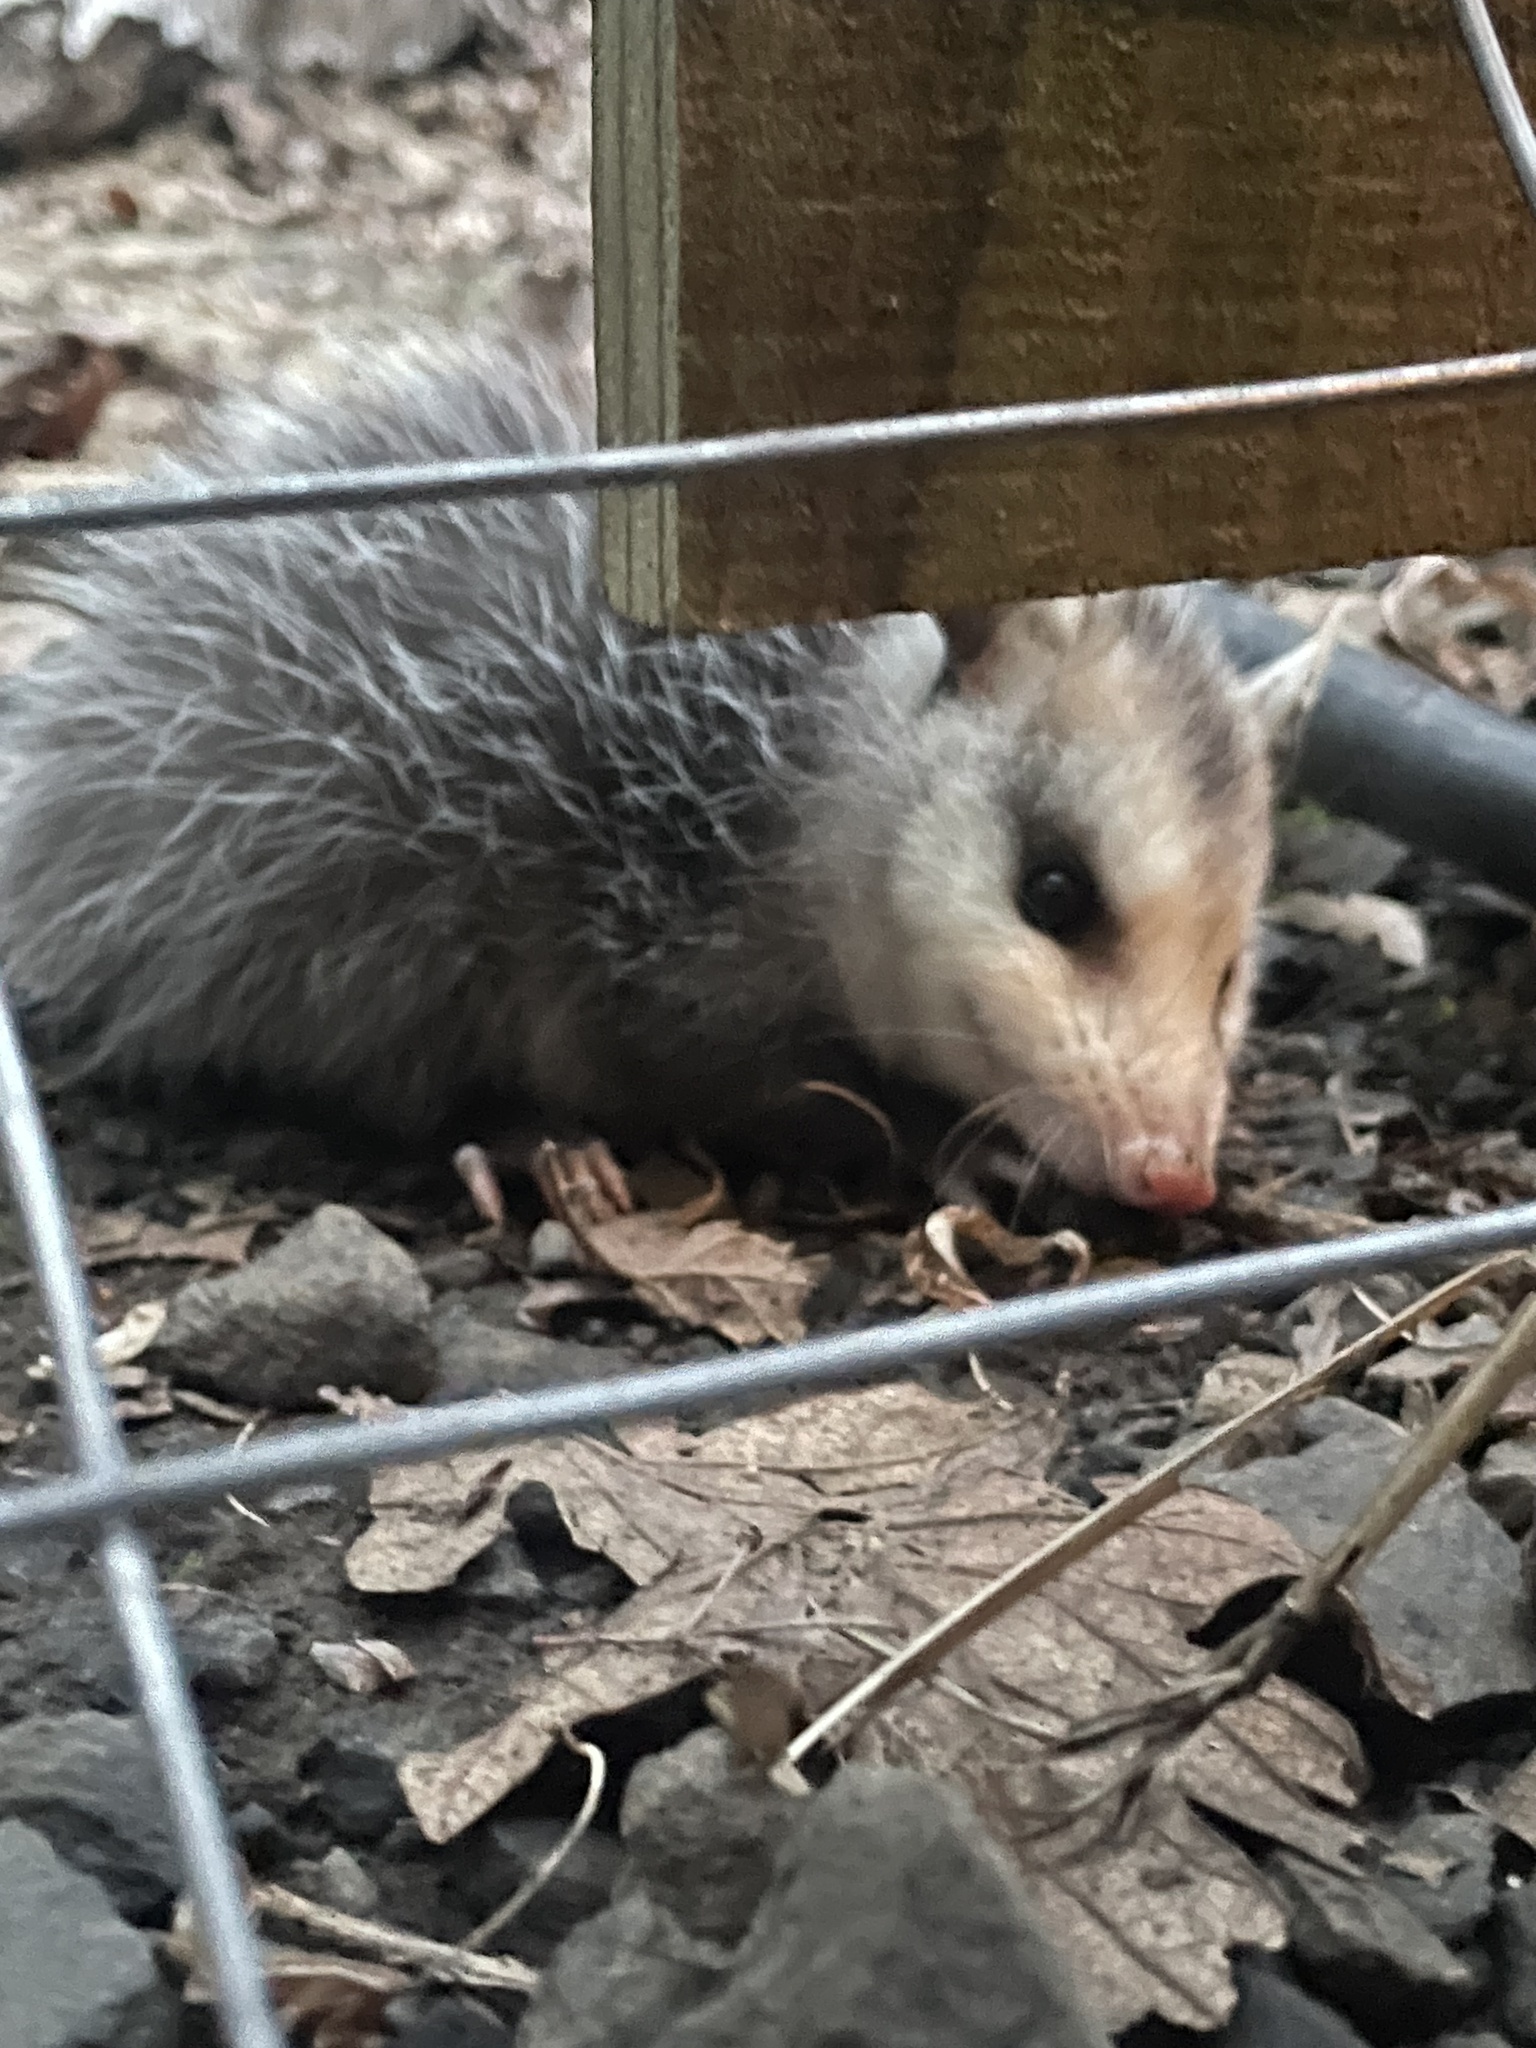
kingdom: Animalia
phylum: Chordata
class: Mammalia
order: Didelphimorphia
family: Didelphidae
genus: Didelphis
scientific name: Didelphis virginiana
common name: Virginia opossum
